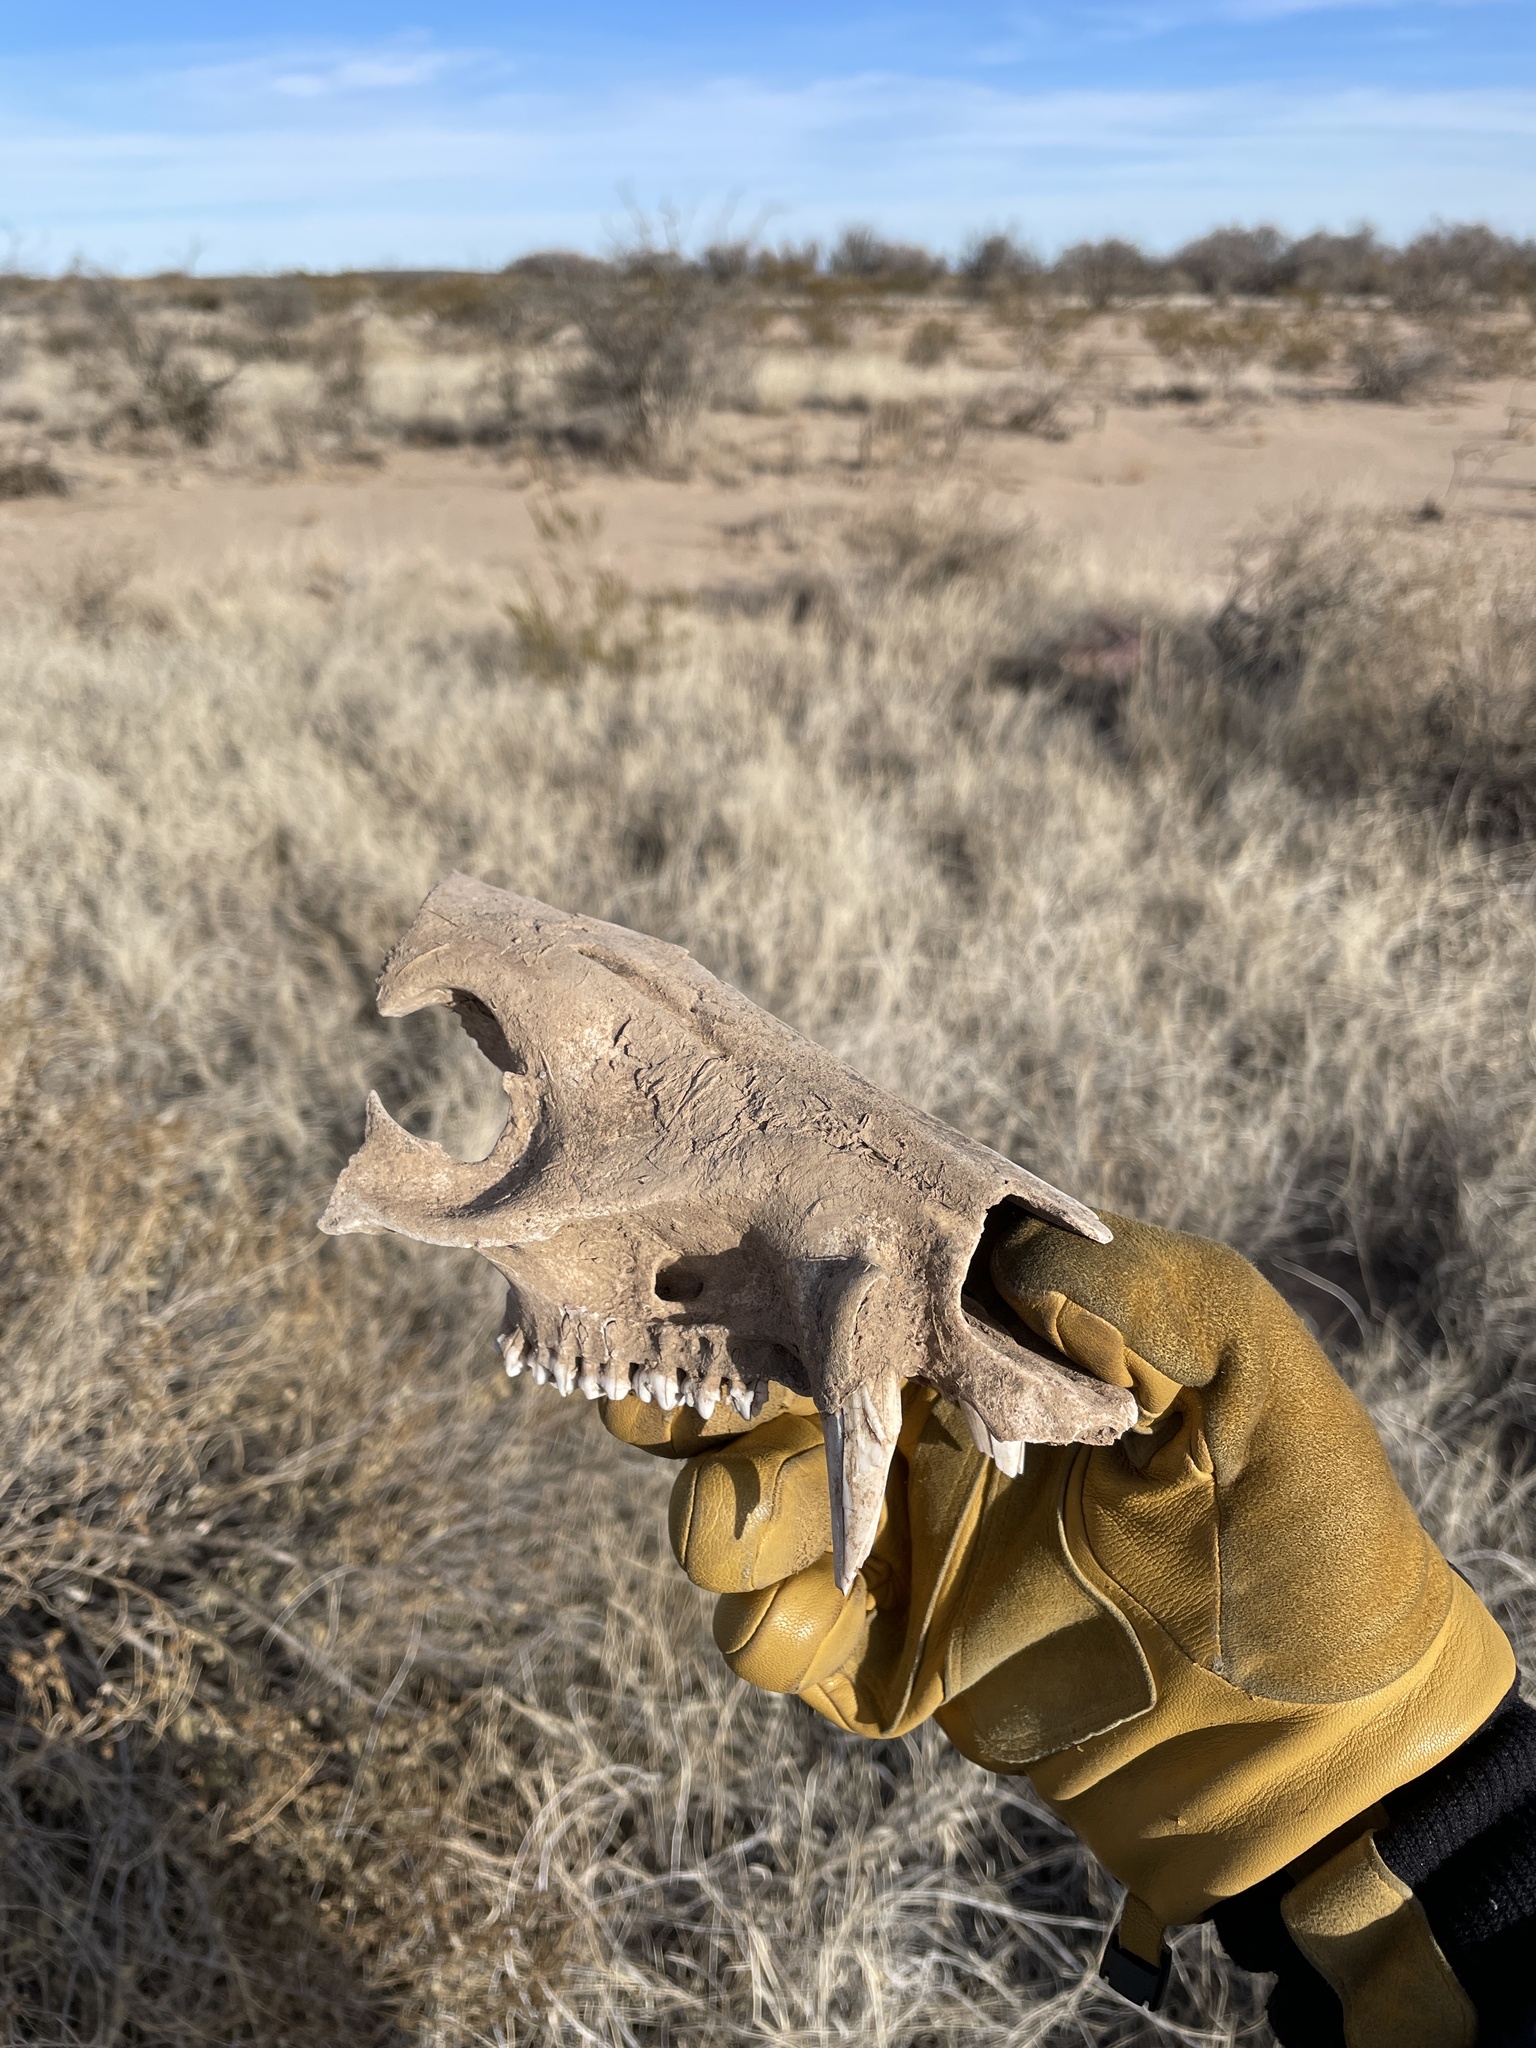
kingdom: Animalia
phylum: Chordata
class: Mammalia
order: Artiodactyla
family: Tayassuidae
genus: Pecari
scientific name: Pecari tajacu
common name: Collared peccary
